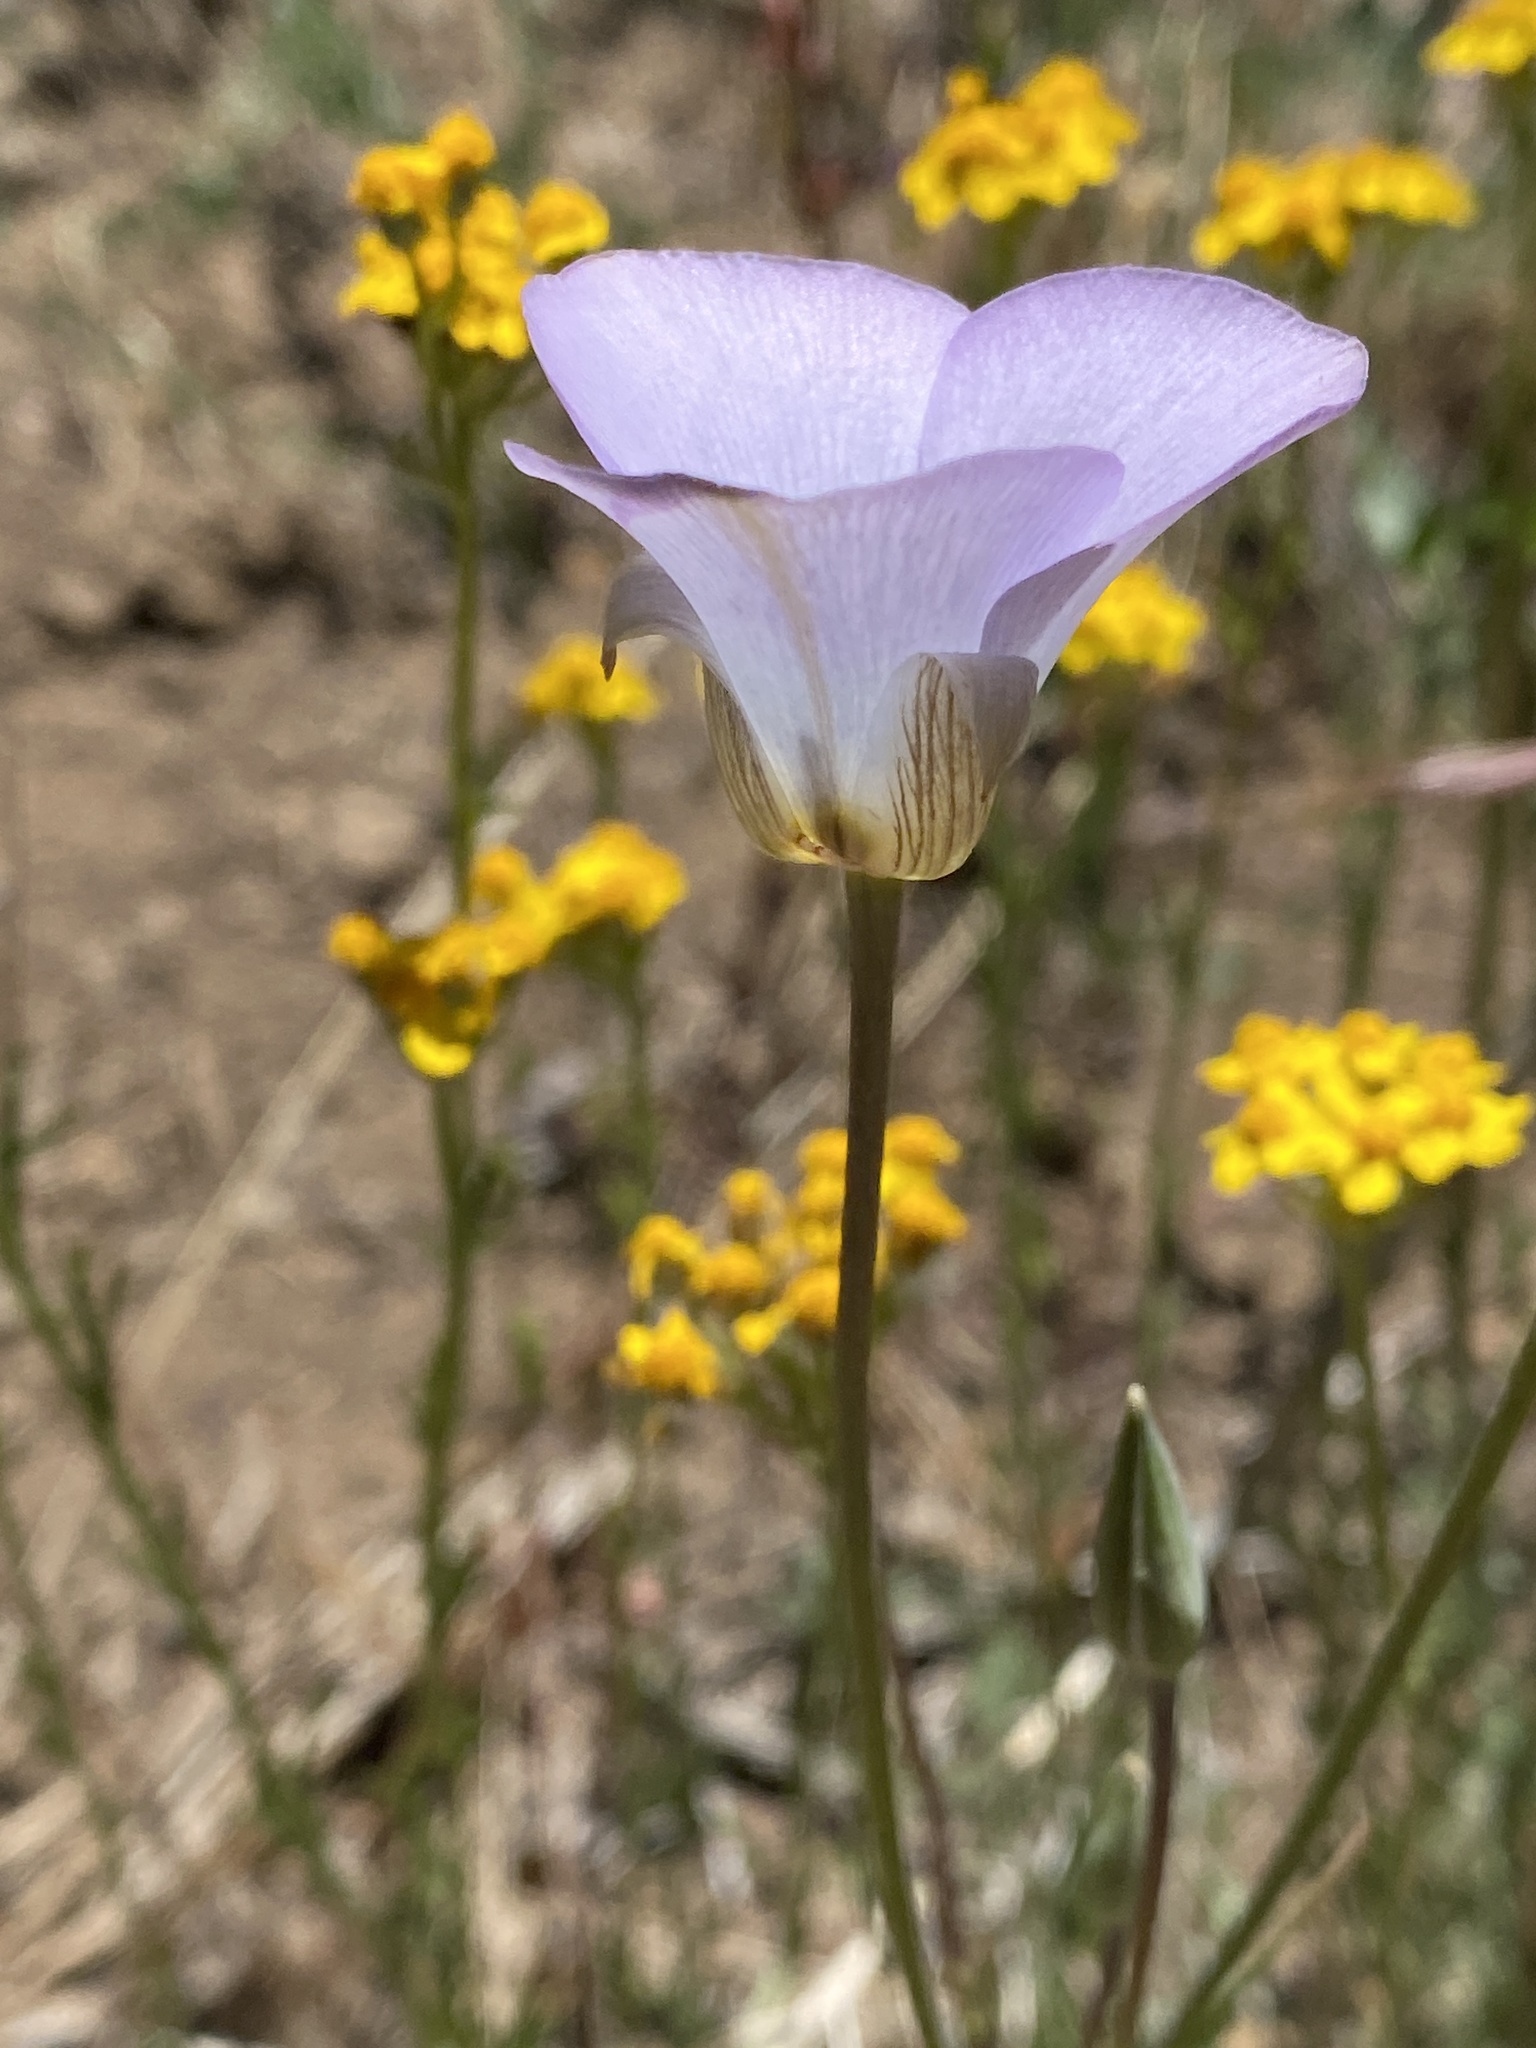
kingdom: Plantae
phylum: Tracheophyta
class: Liliopsida
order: Liliales
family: Liliaceae
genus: Calochortus
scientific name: Calochortus invenustus
